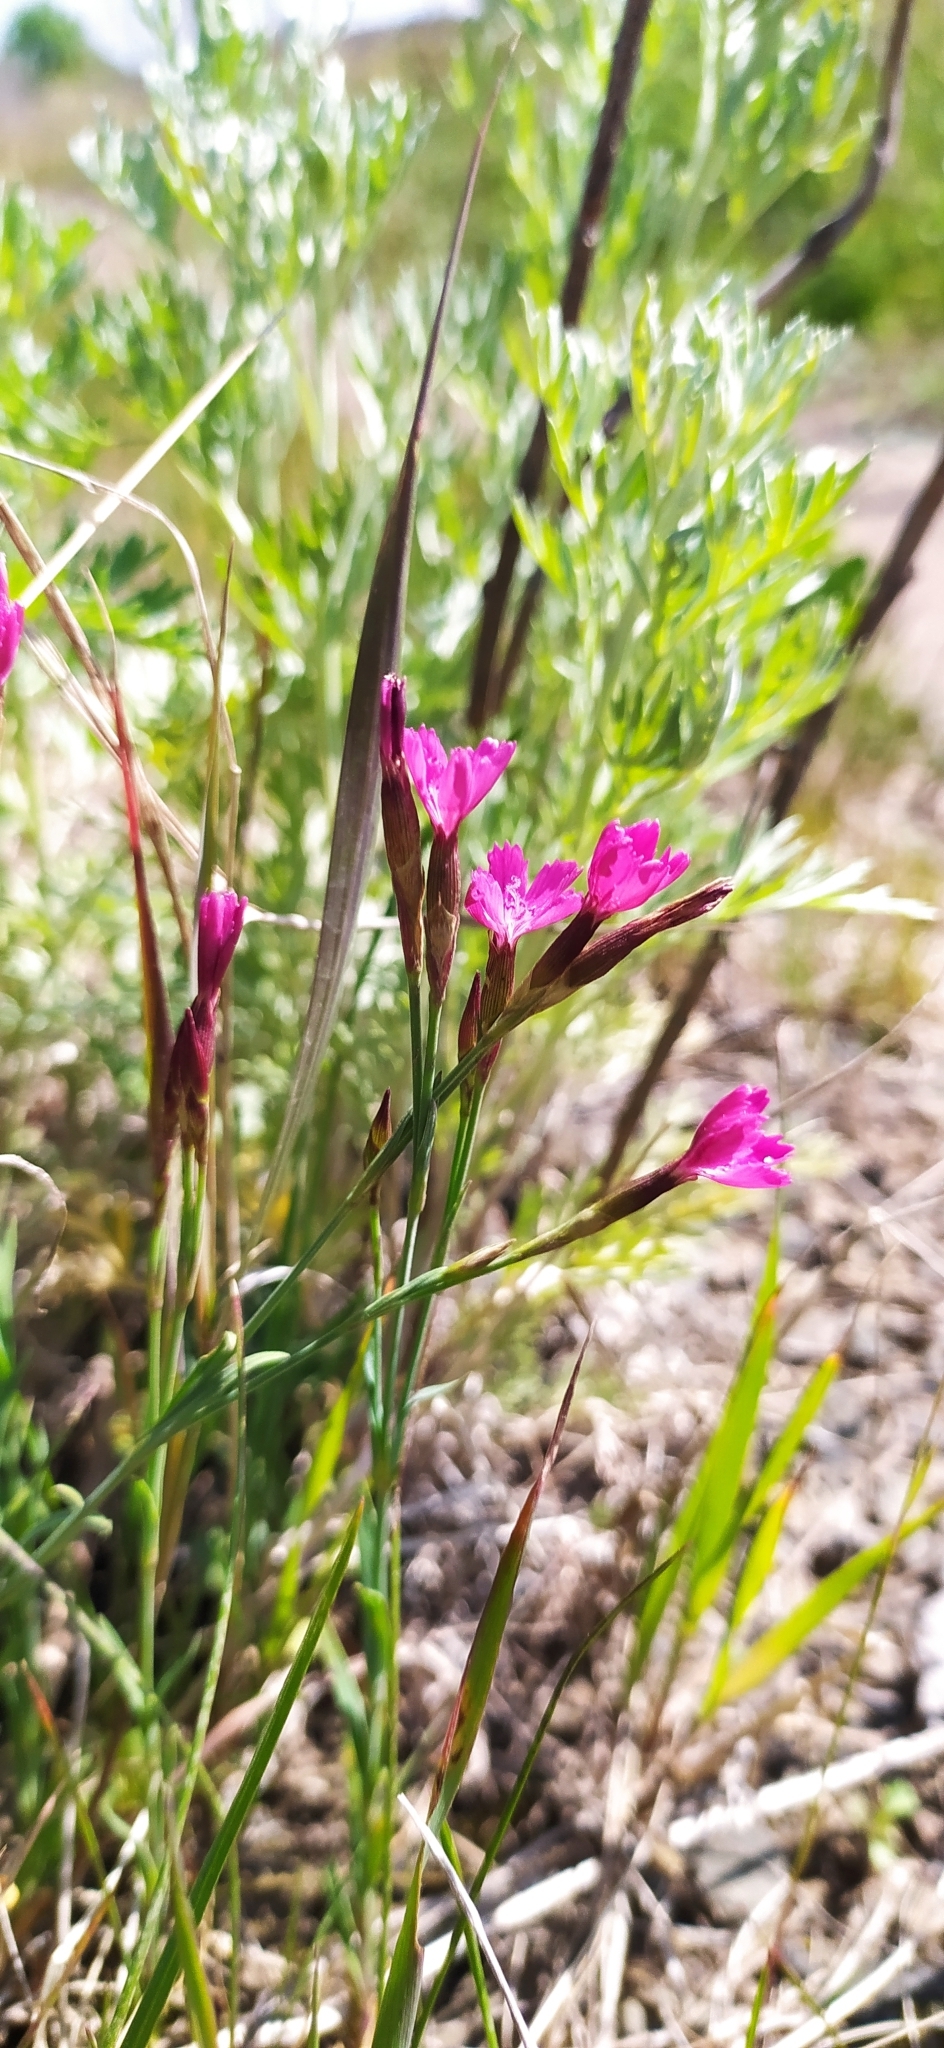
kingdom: Plantae
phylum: Tracheophyta
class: Magnoliopsida
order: Caryophyllales
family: Caryophyllaceae
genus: Dianthus
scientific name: Dianthus deltoides
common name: Maiden pink
